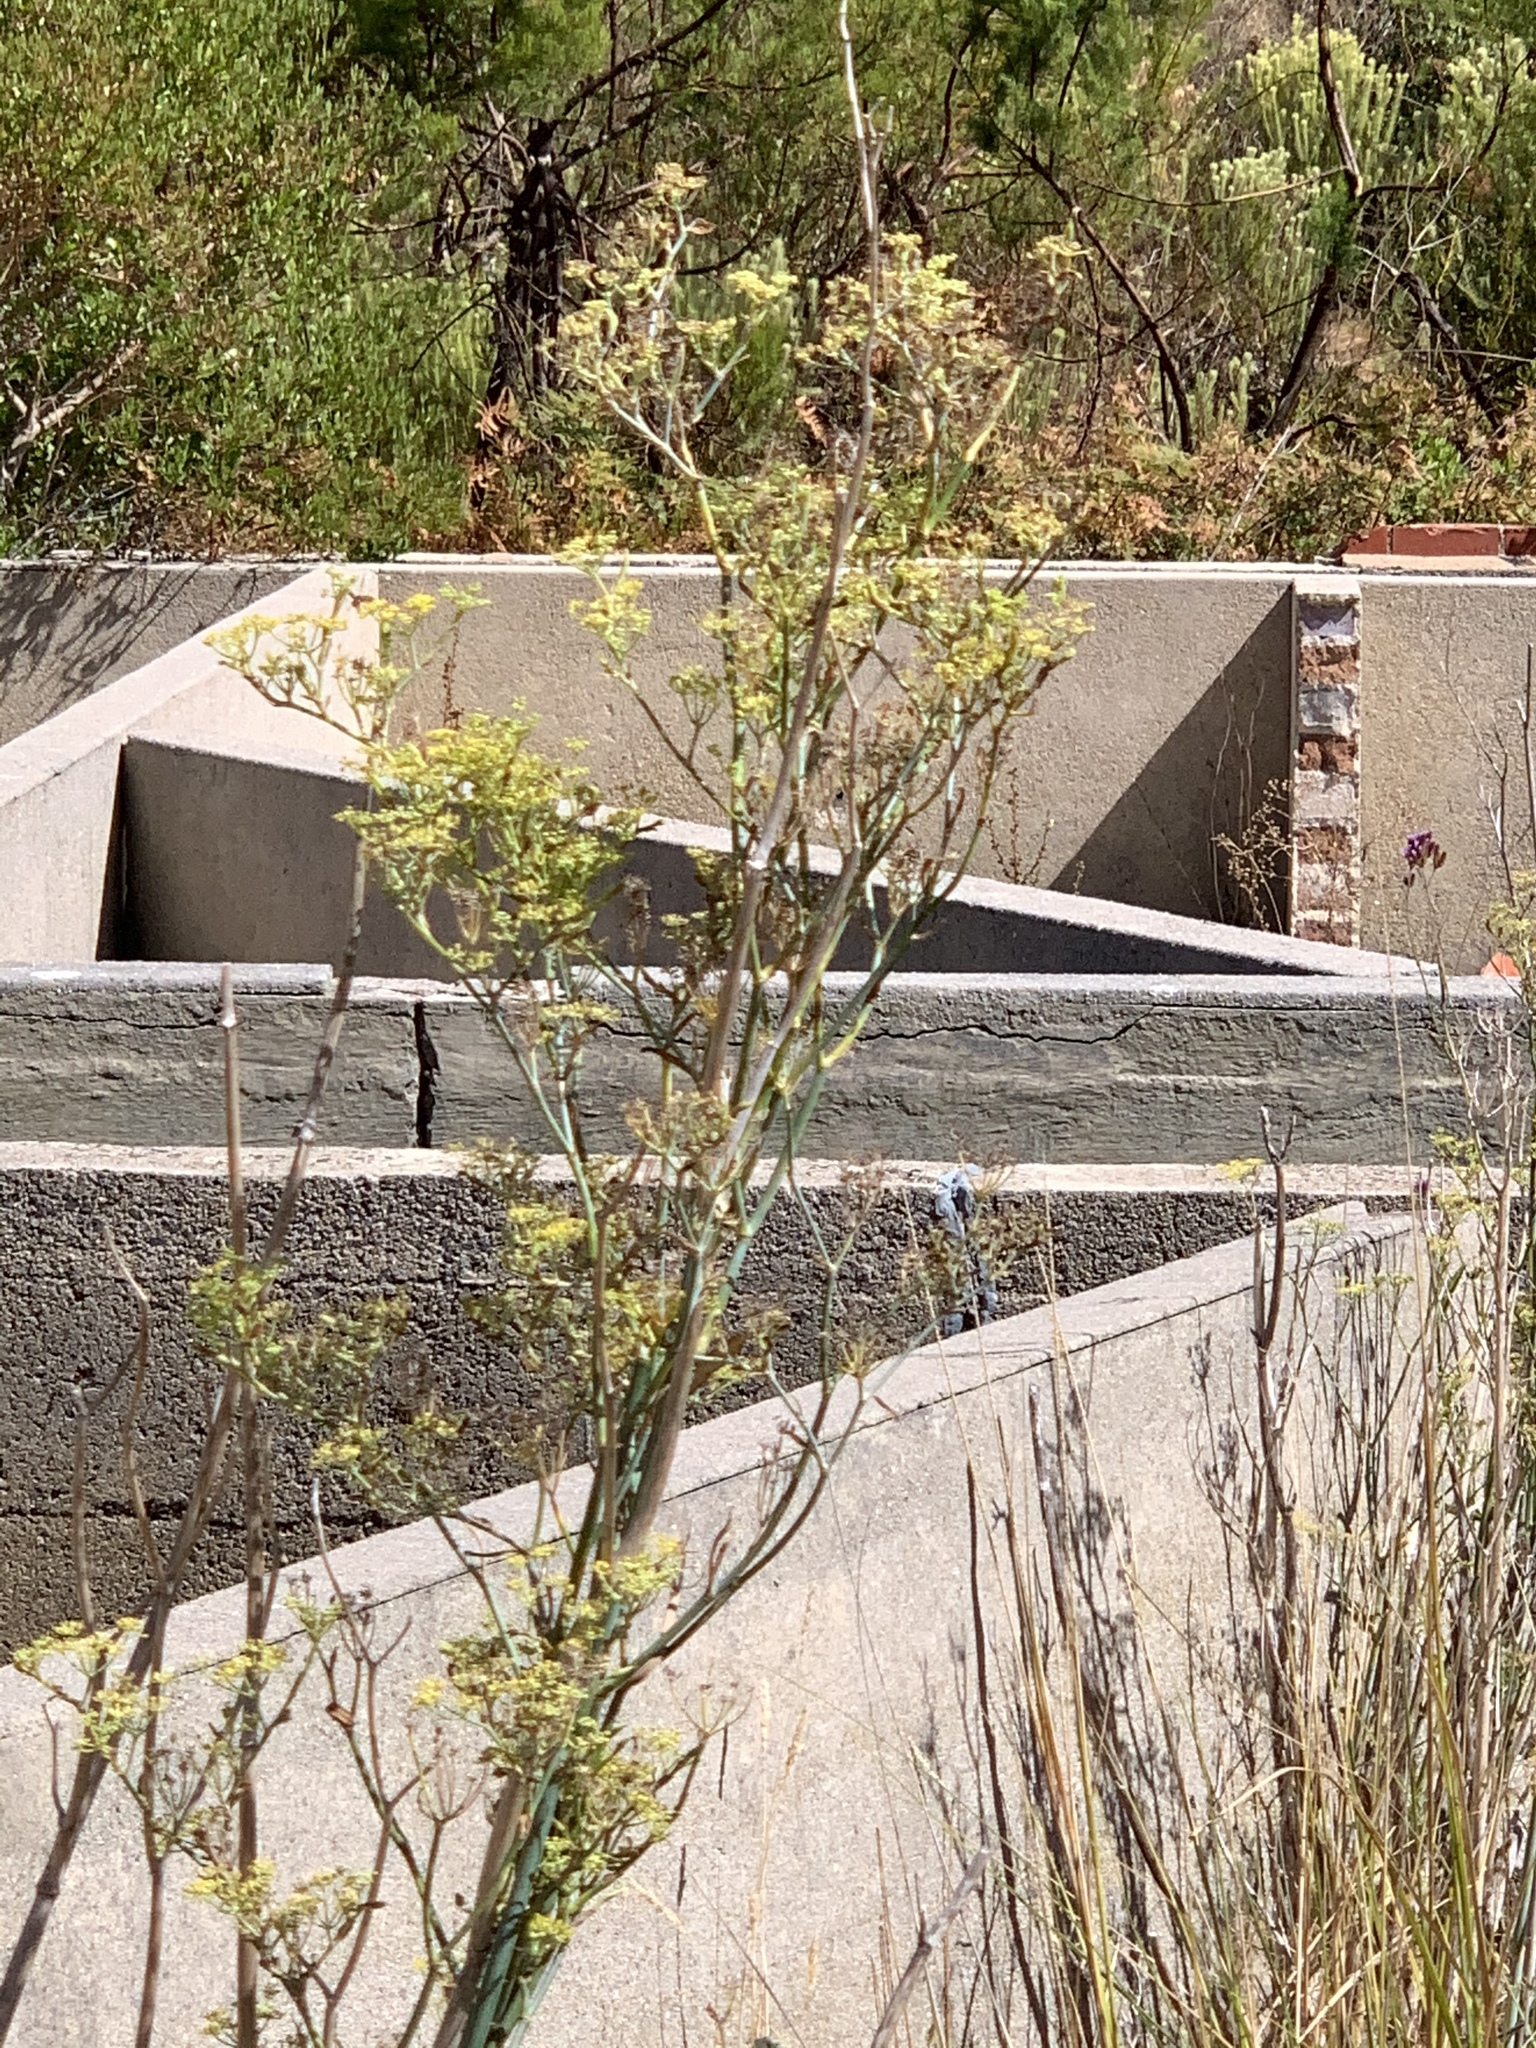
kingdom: Plantae
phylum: Tracheophyta
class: Magnoliopsida
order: Apiales
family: Apiaceae
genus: Foeniculum
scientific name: Foeniculum vulgare
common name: Fennel
